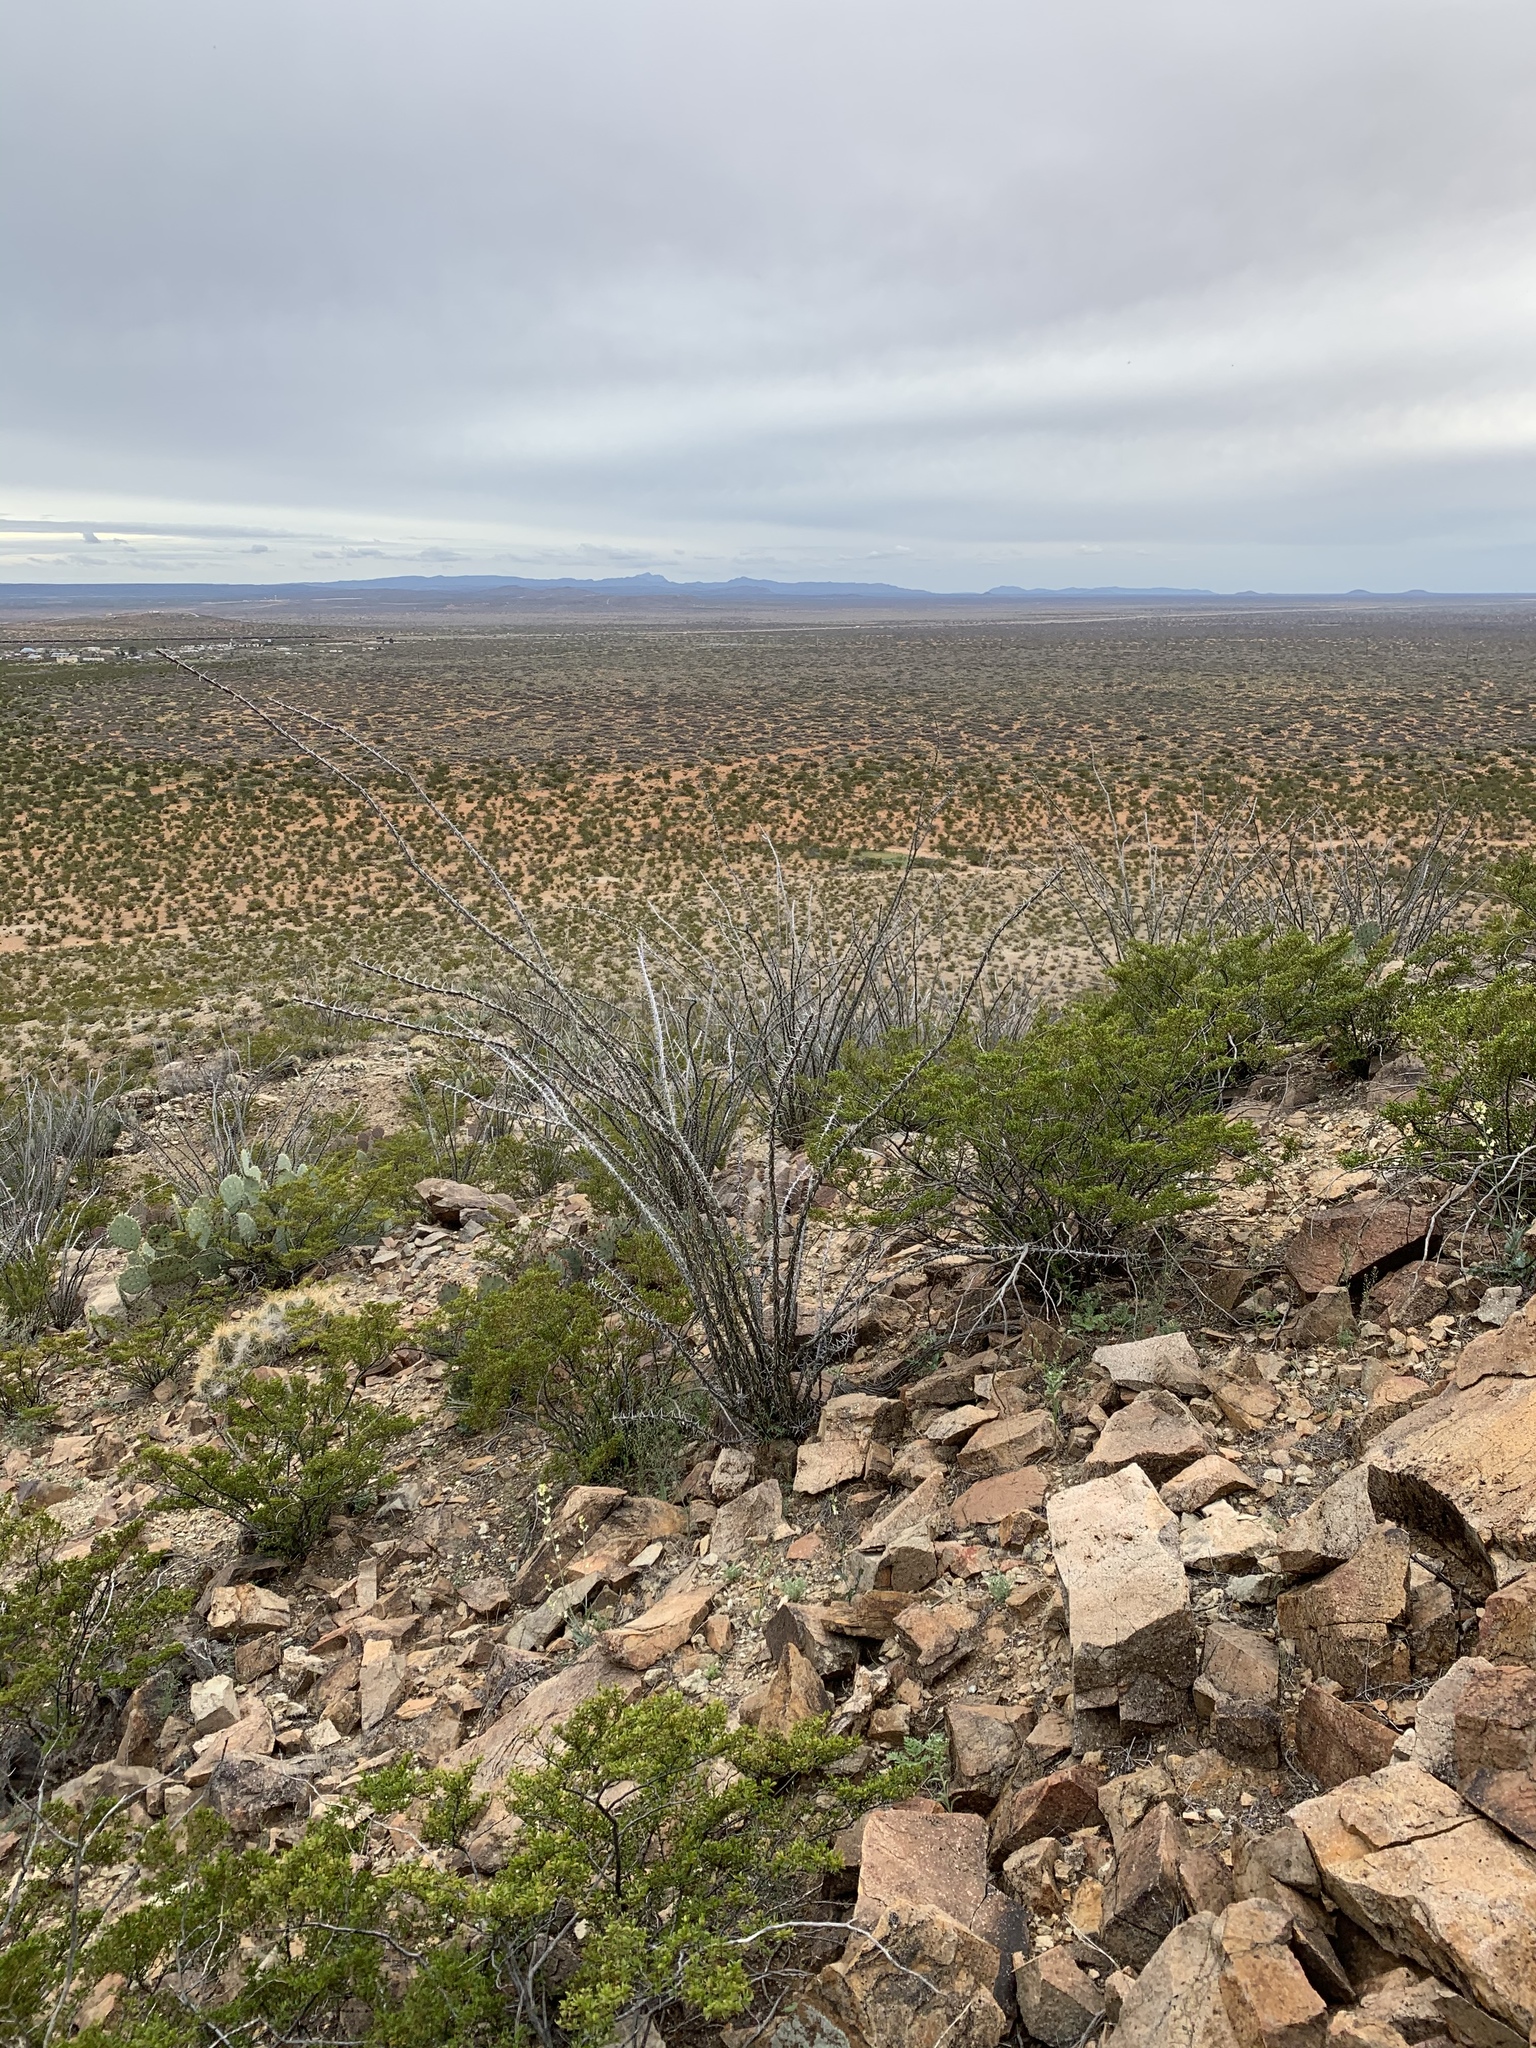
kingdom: Plantae
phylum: Tracheophyta
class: Magnoliopsida
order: Ericales
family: Fouquieriaceae
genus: Fouquieria
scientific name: Fouquieria splendens
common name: Vine-cactus
